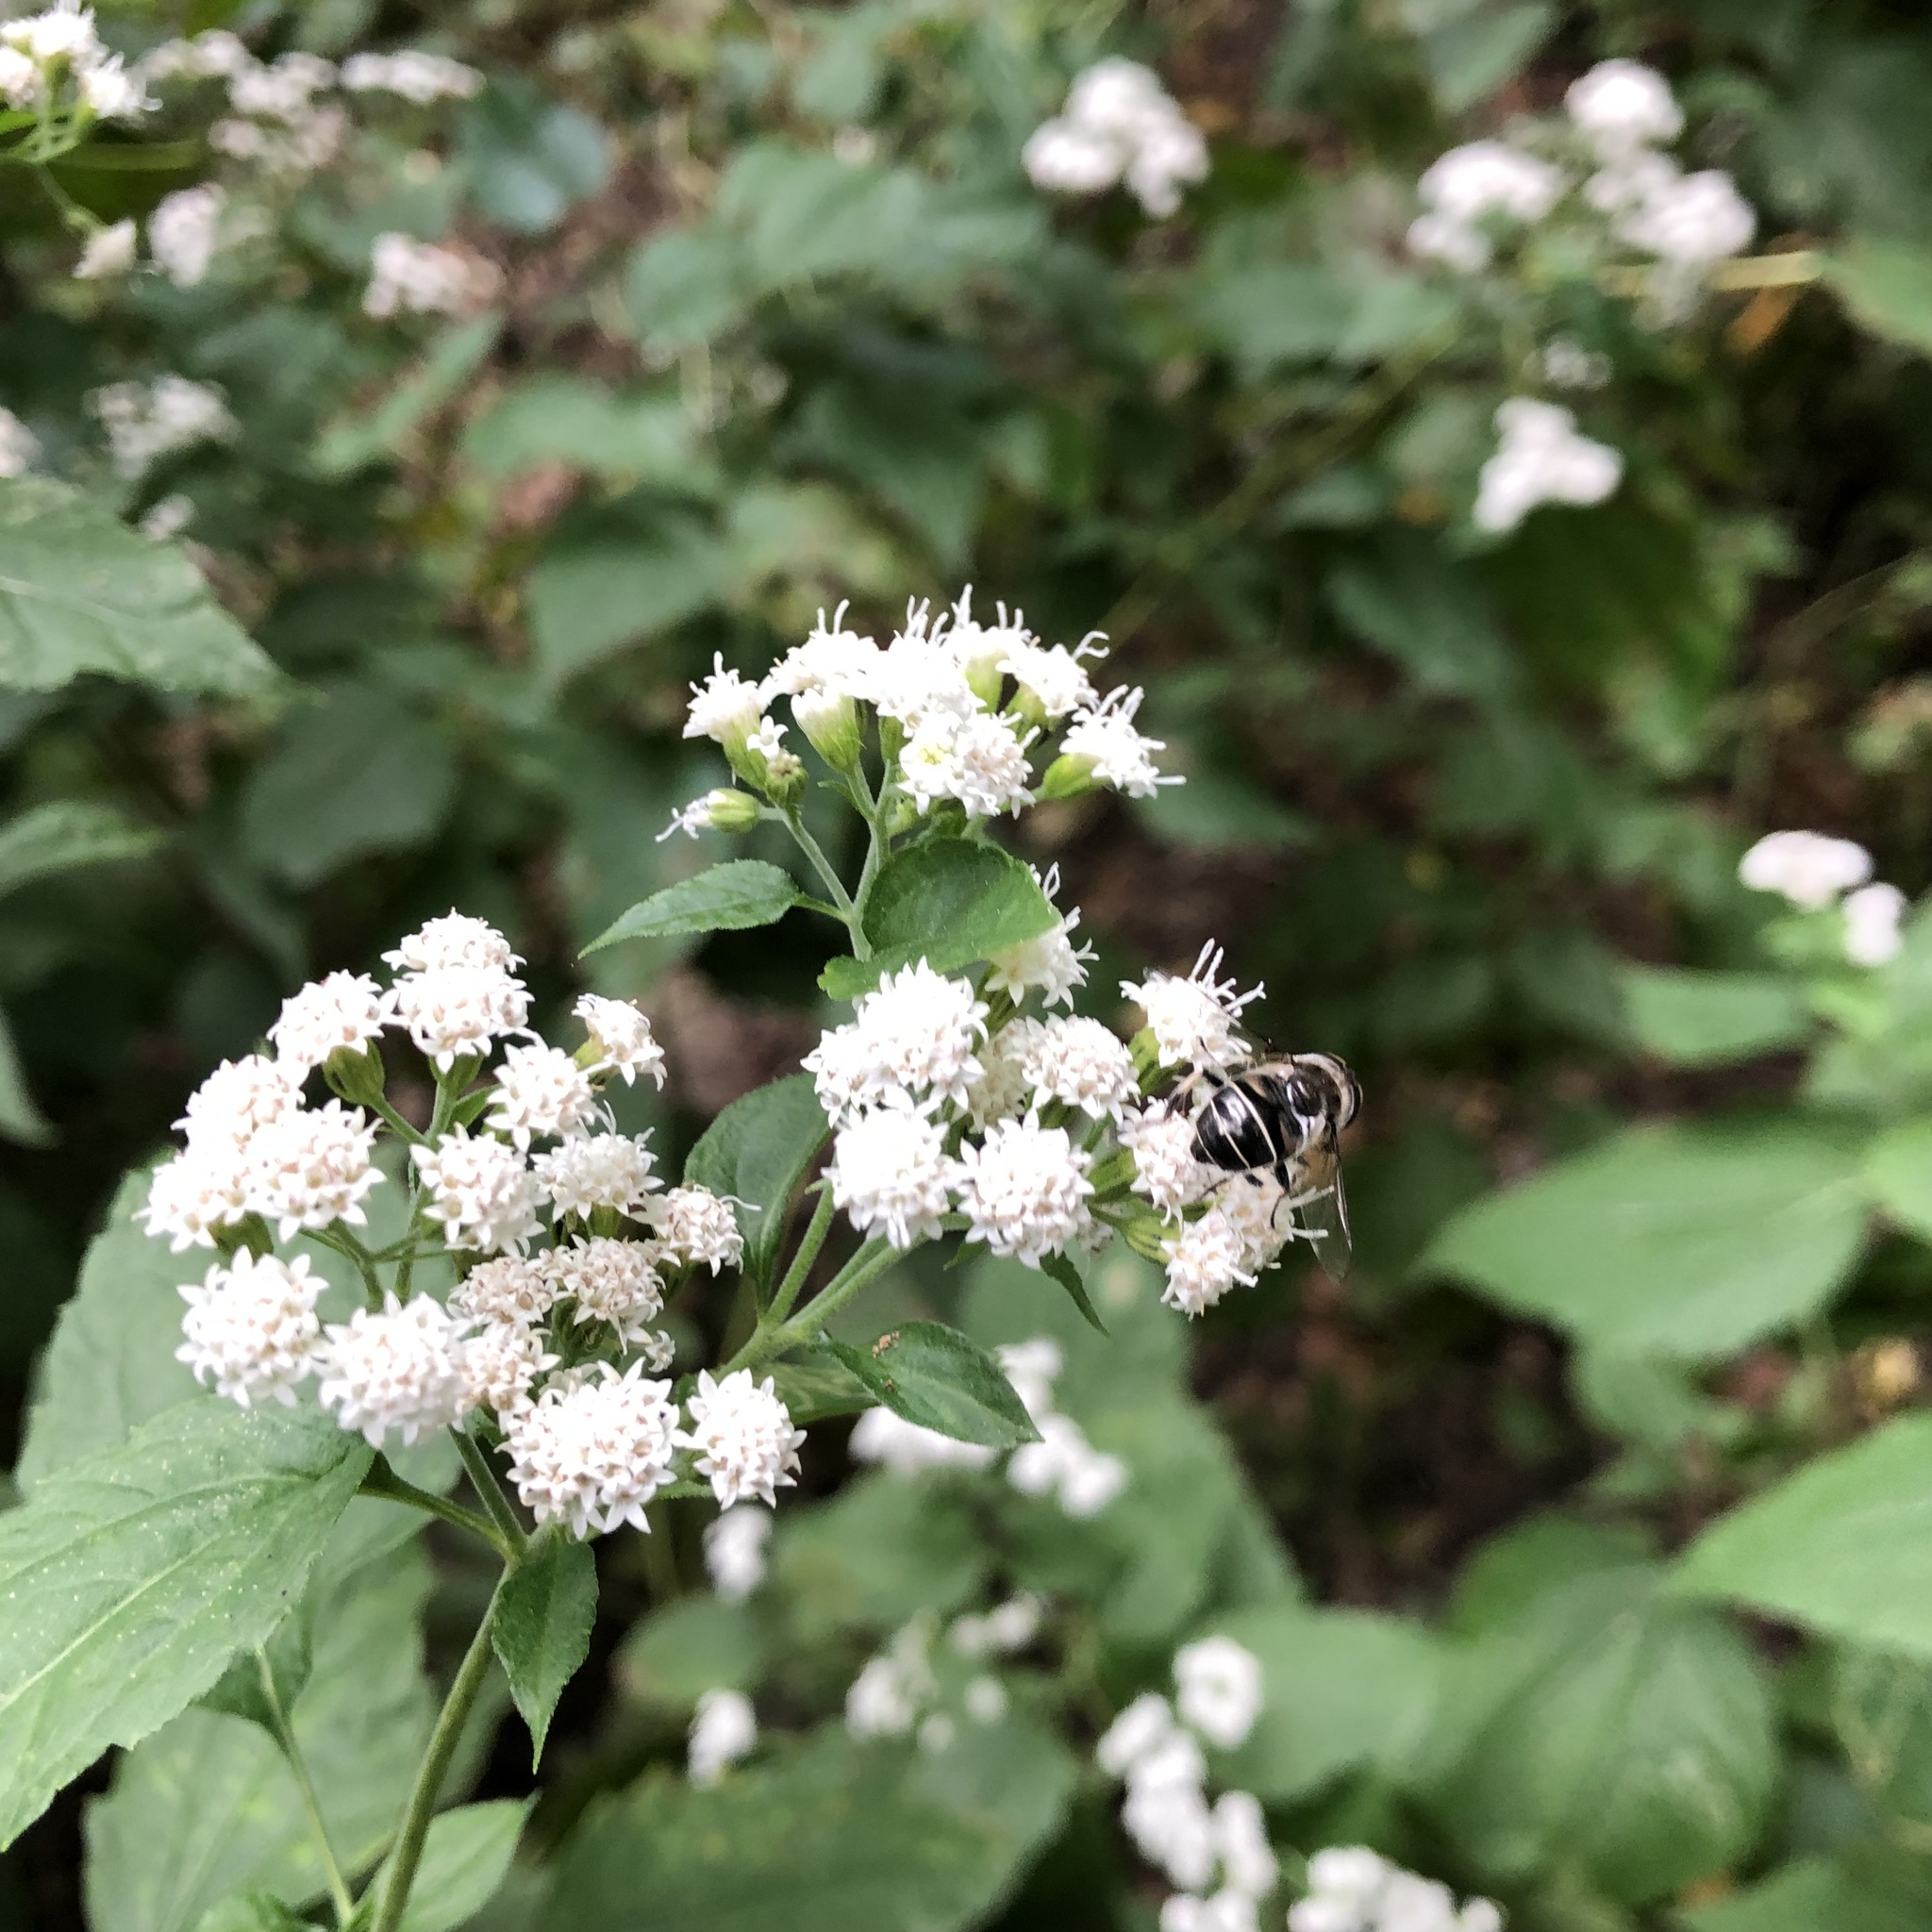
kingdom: Animalia
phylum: Arthropoda
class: Insecta
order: Diptera
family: Syrphidae
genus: Eristalis
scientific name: Eristalis dimidiata
